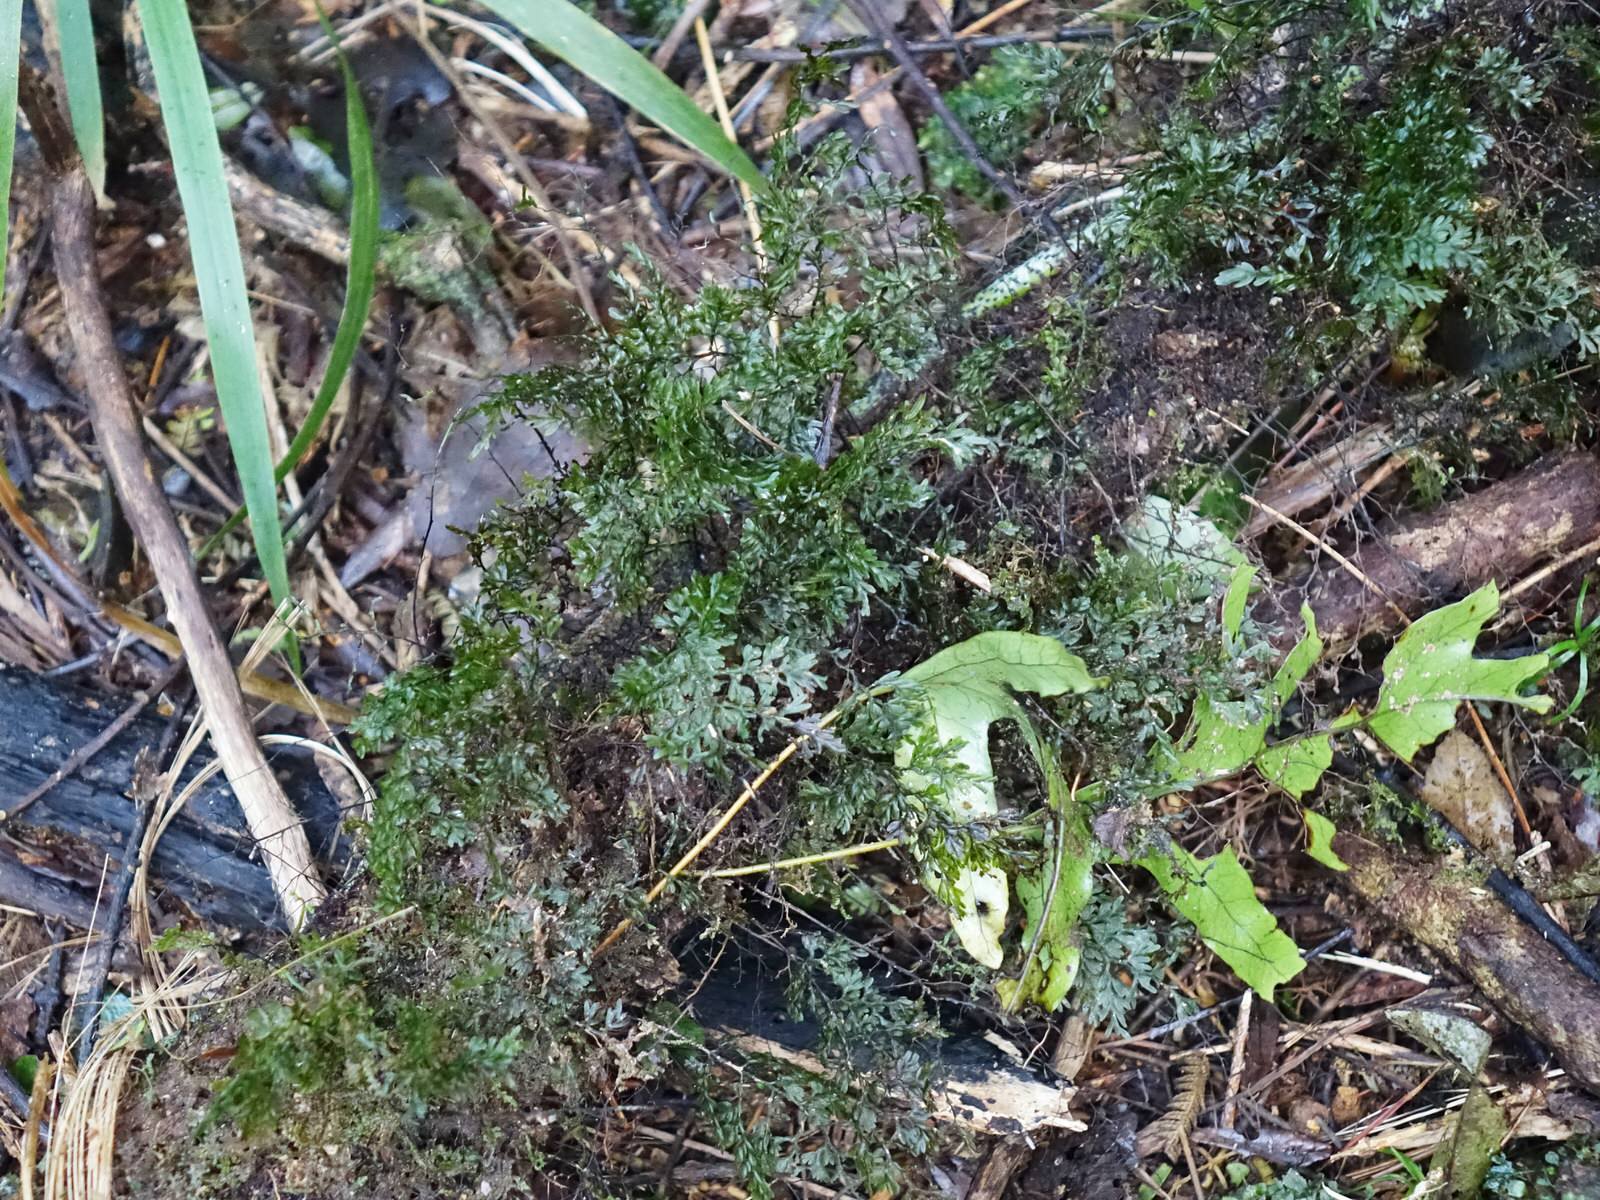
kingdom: Plantae
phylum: Tracheophyta
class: Polypodiopsida
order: Hymenophyllales
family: Hymenophyllaceae
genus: Hymenophyllum
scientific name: Hymenophyllum sanguinolentum
